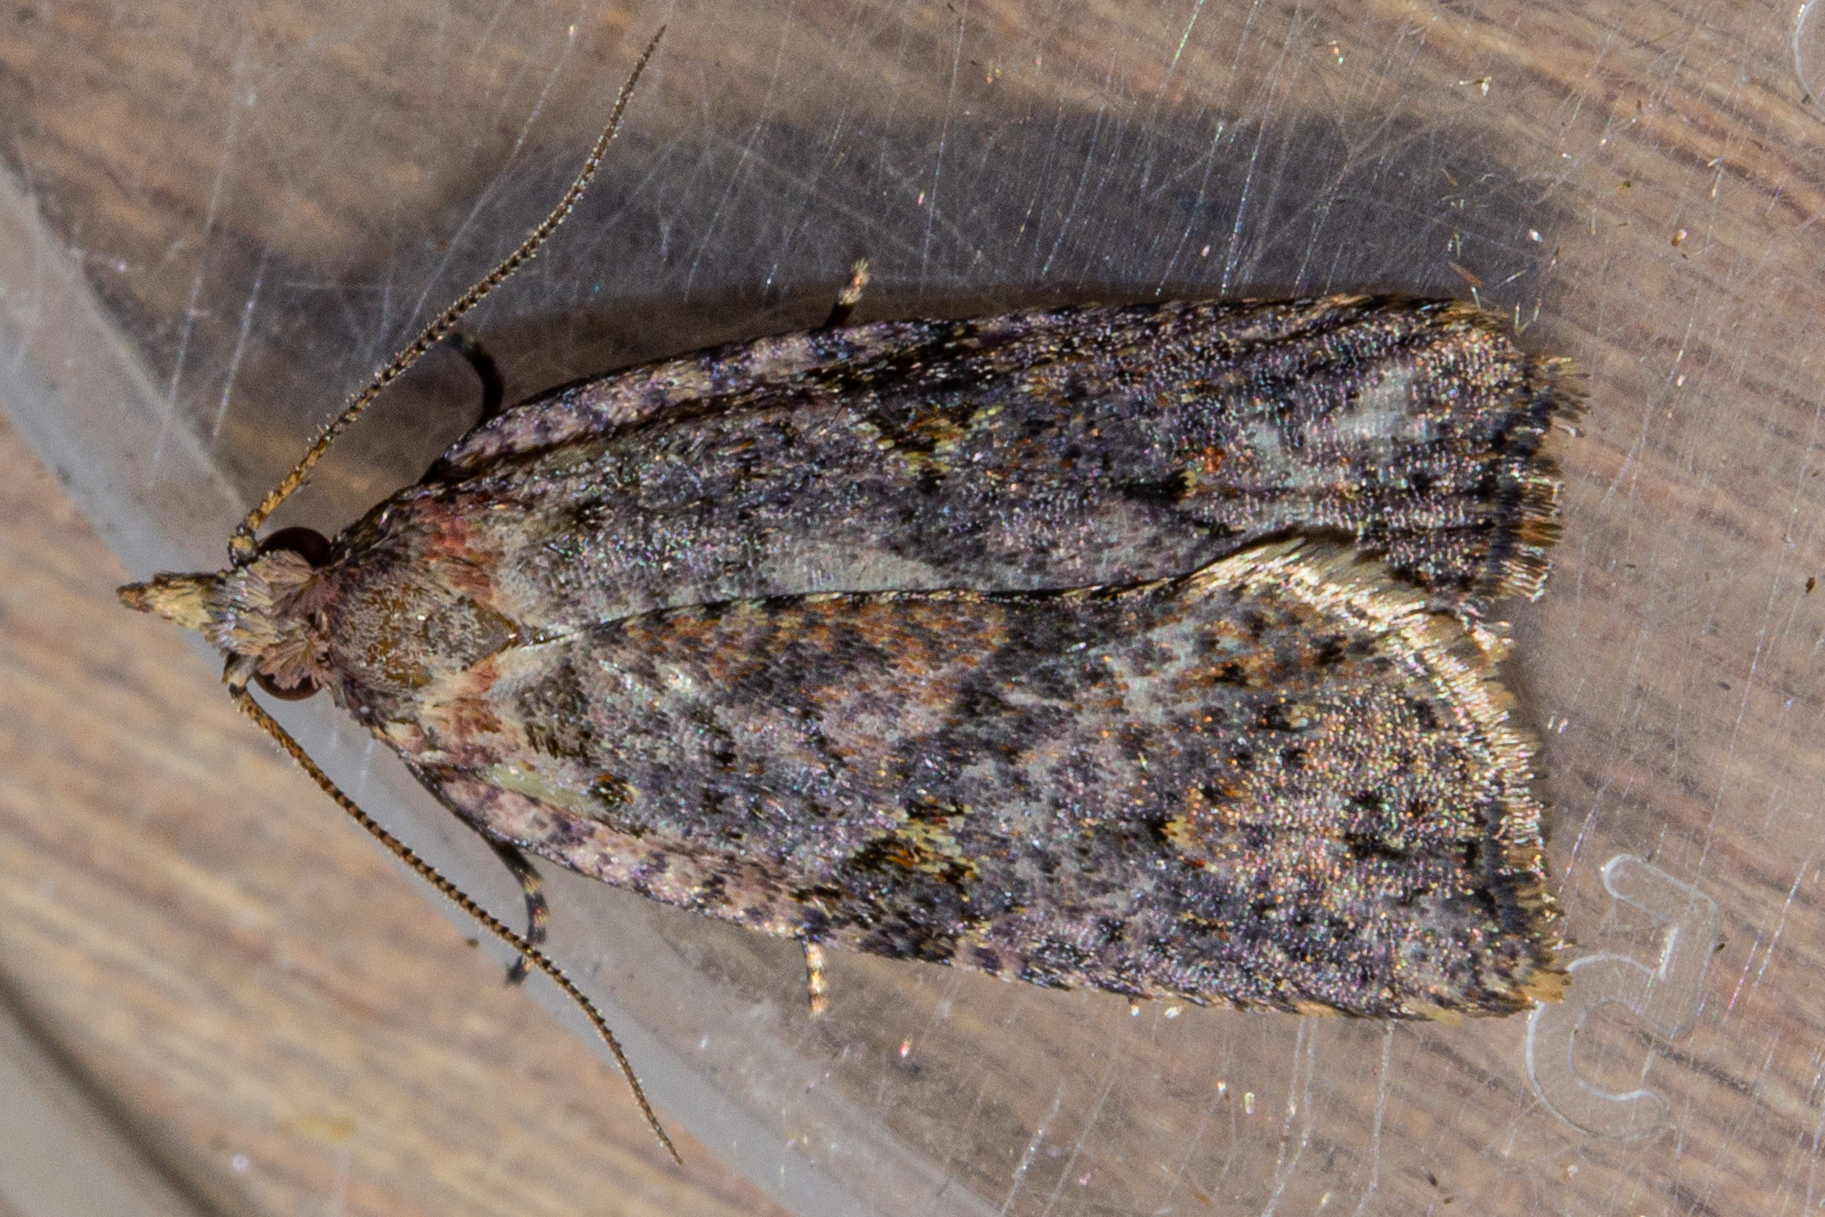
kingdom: Animalia
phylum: Arthropoda
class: Insecta
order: Lepidoptera
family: Tortricidae
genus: Ctenopseustis
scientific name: Ctenopseustis obliquana
